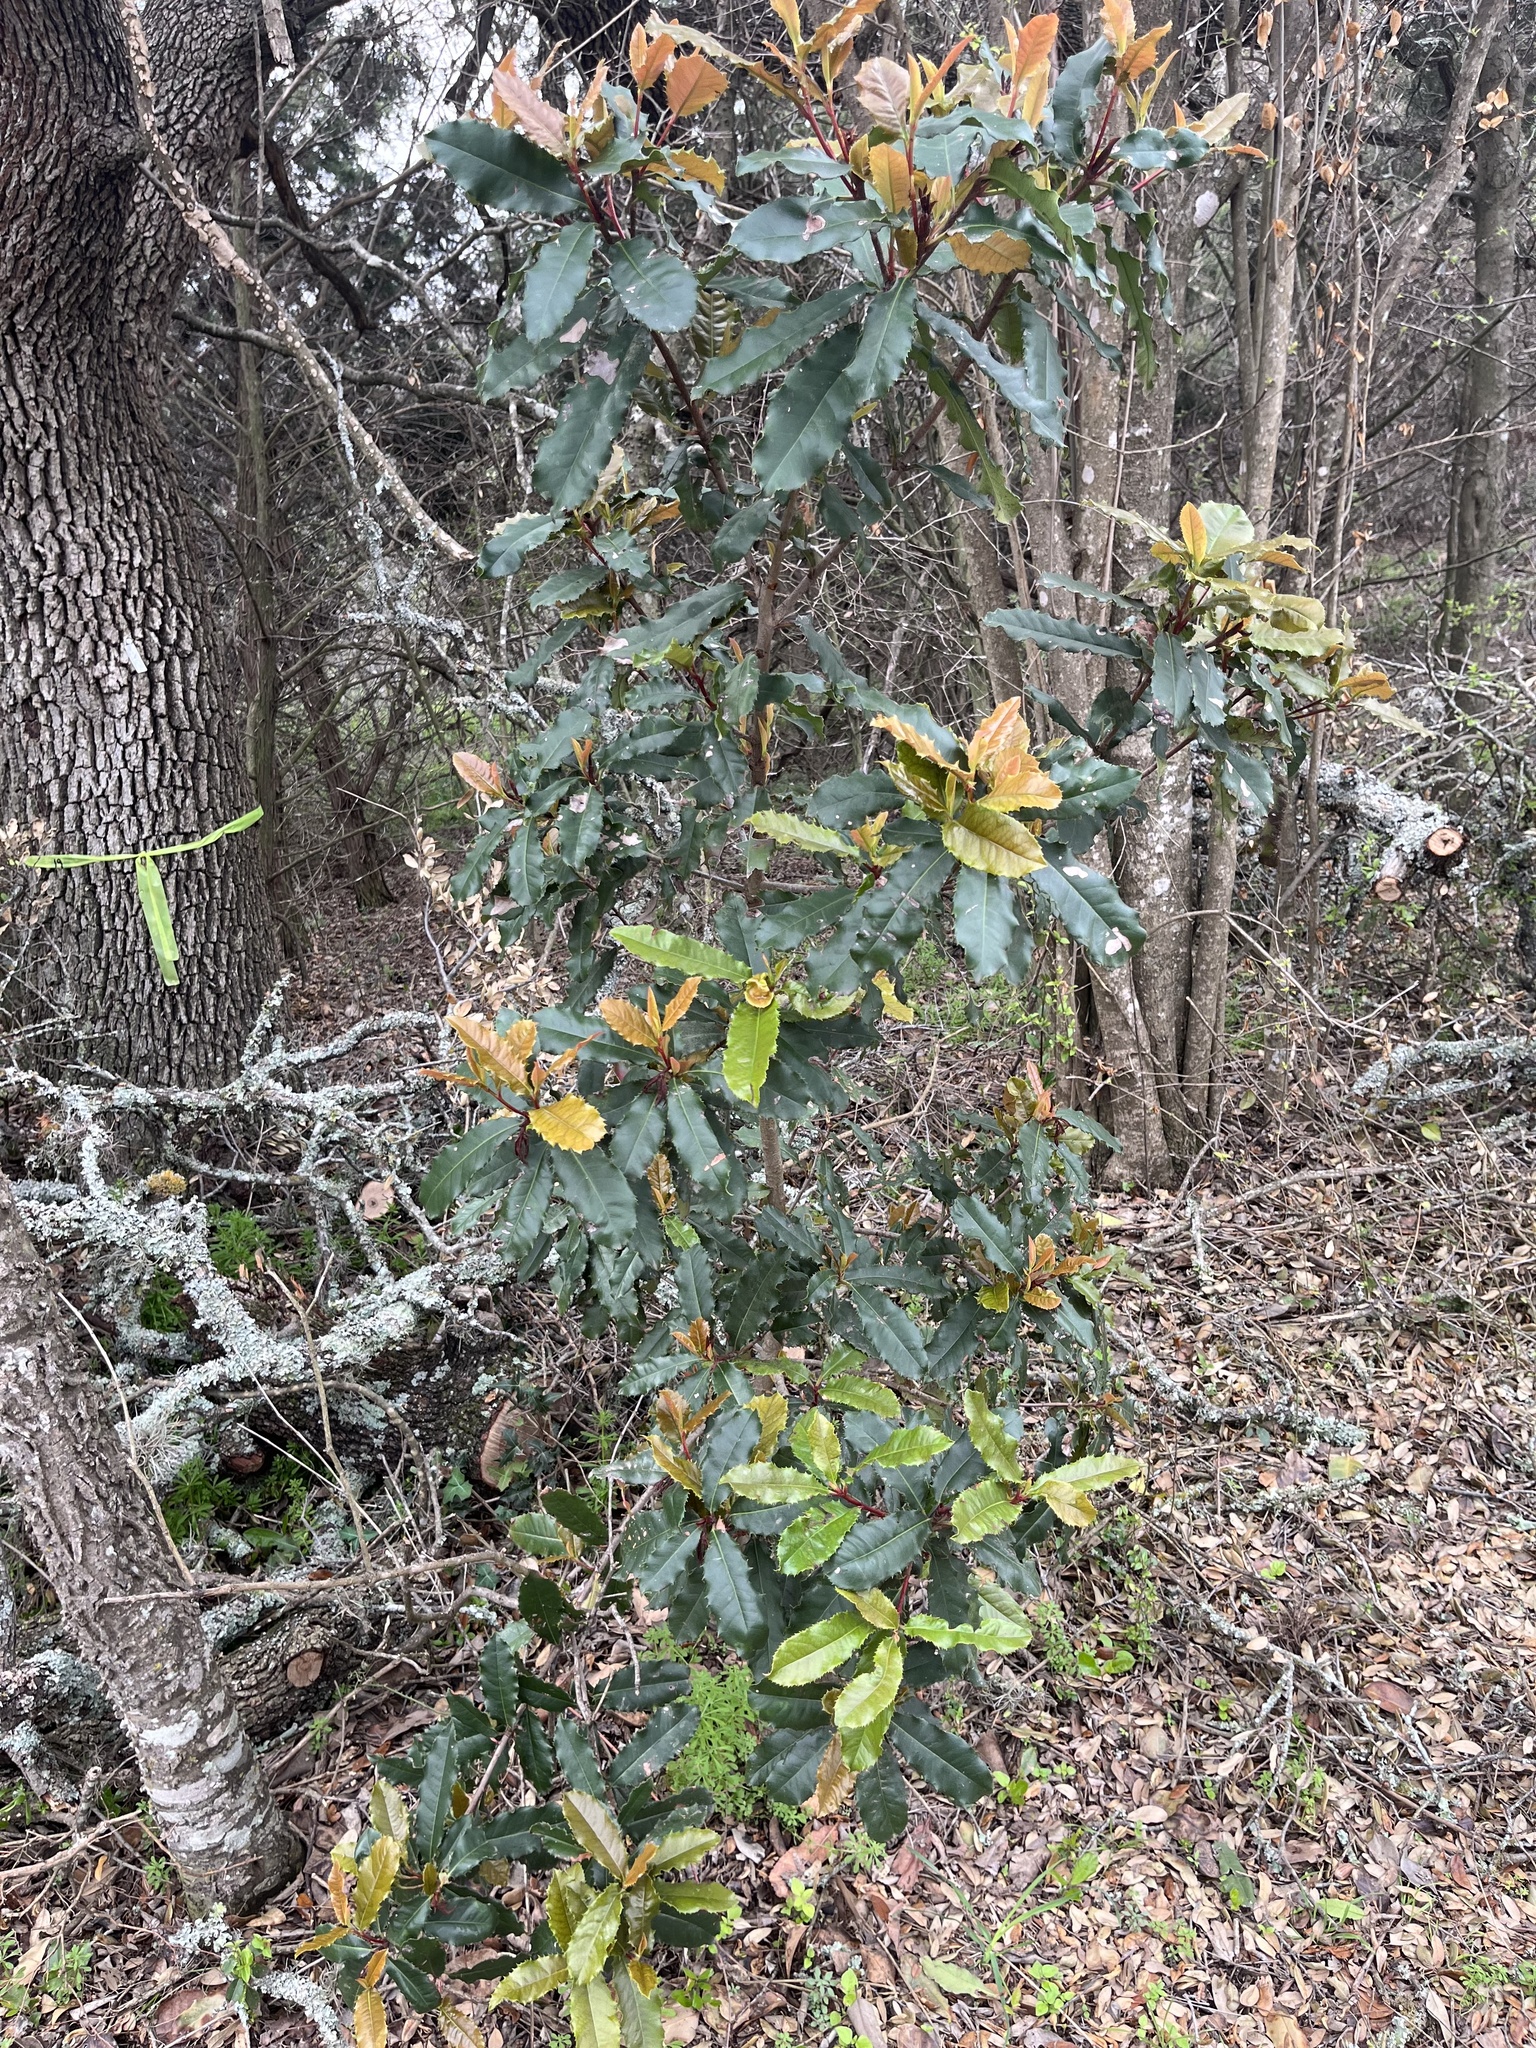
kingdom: Plantae
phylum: Tracheophyta
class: Magnoliopsida
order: Rosales
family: Rosaceae
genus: Photinia
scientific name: Photinia serratifolia
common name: Taiwanese photinia
